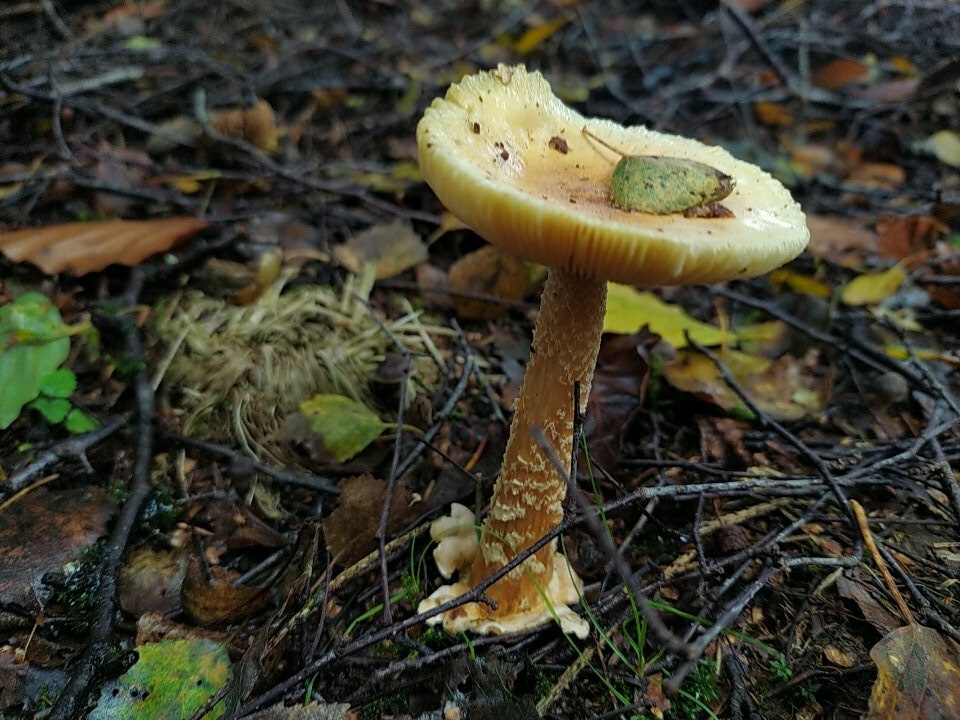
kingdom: Fungi
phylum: Basidiomycota
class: Agaricomycetes
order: Agaricales
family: Amanitaceae
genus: Amanita
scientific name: Amanita crocea
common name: Orange grisette
